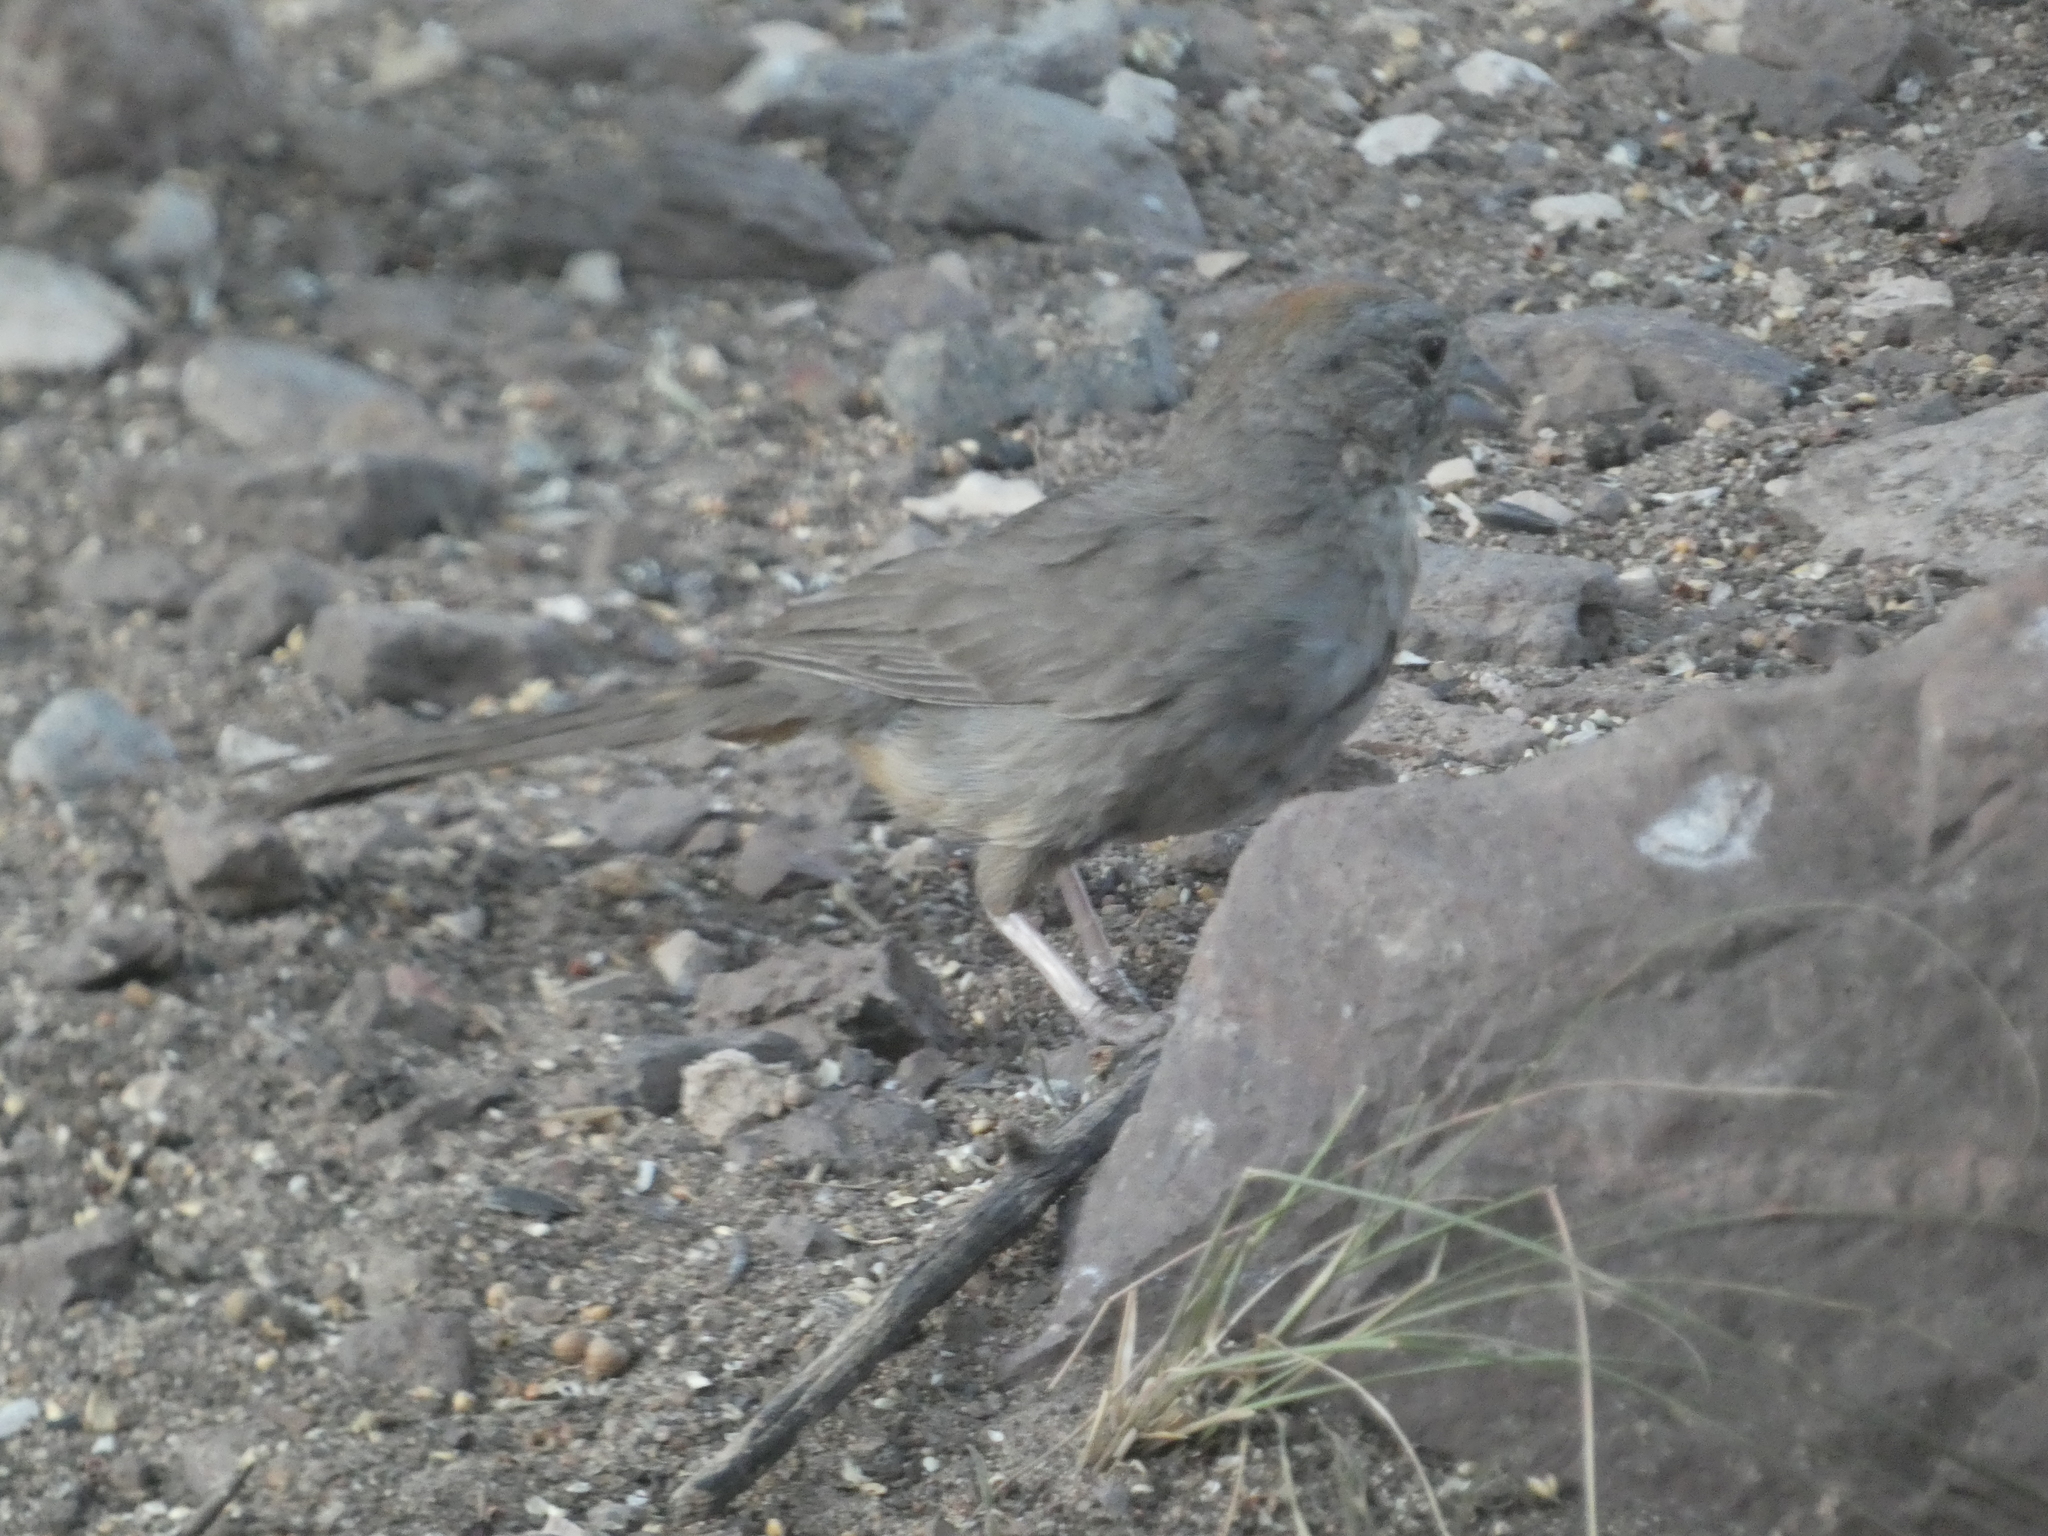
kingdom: Animalia
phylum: Chordata
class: Aves
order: Passeriformes
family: Passerellidae
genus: Melozone
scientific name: Melozone fusca
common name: Canyon towhee
